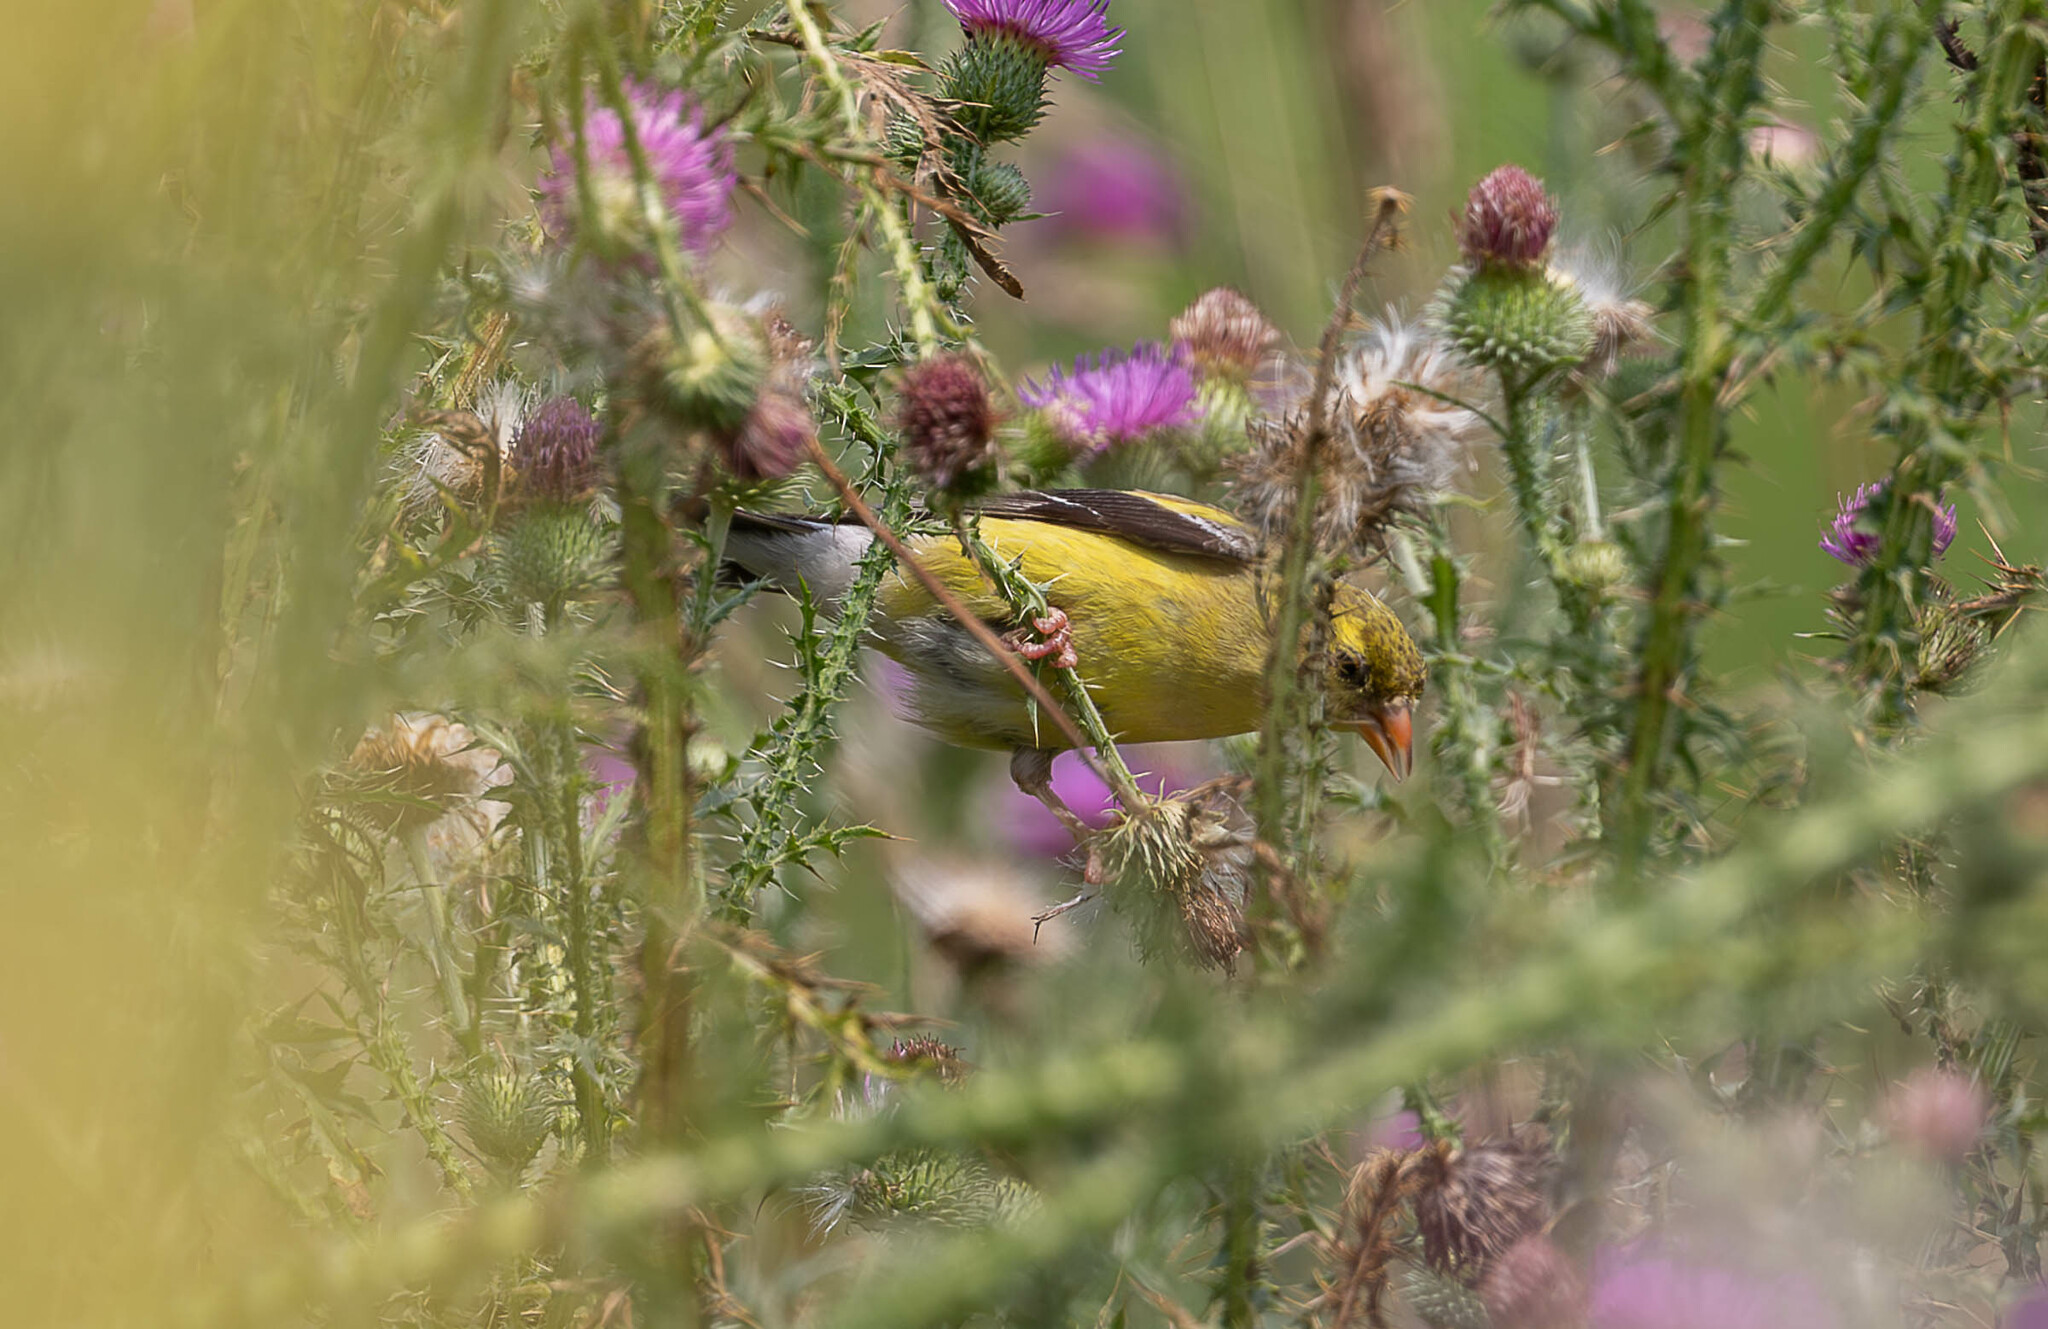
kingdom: Animalia
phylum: Chordata
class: Aves
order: Passeriformes
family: Fringillidae
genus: Spinus
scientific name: Spinus tristis
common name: American goldfinch
